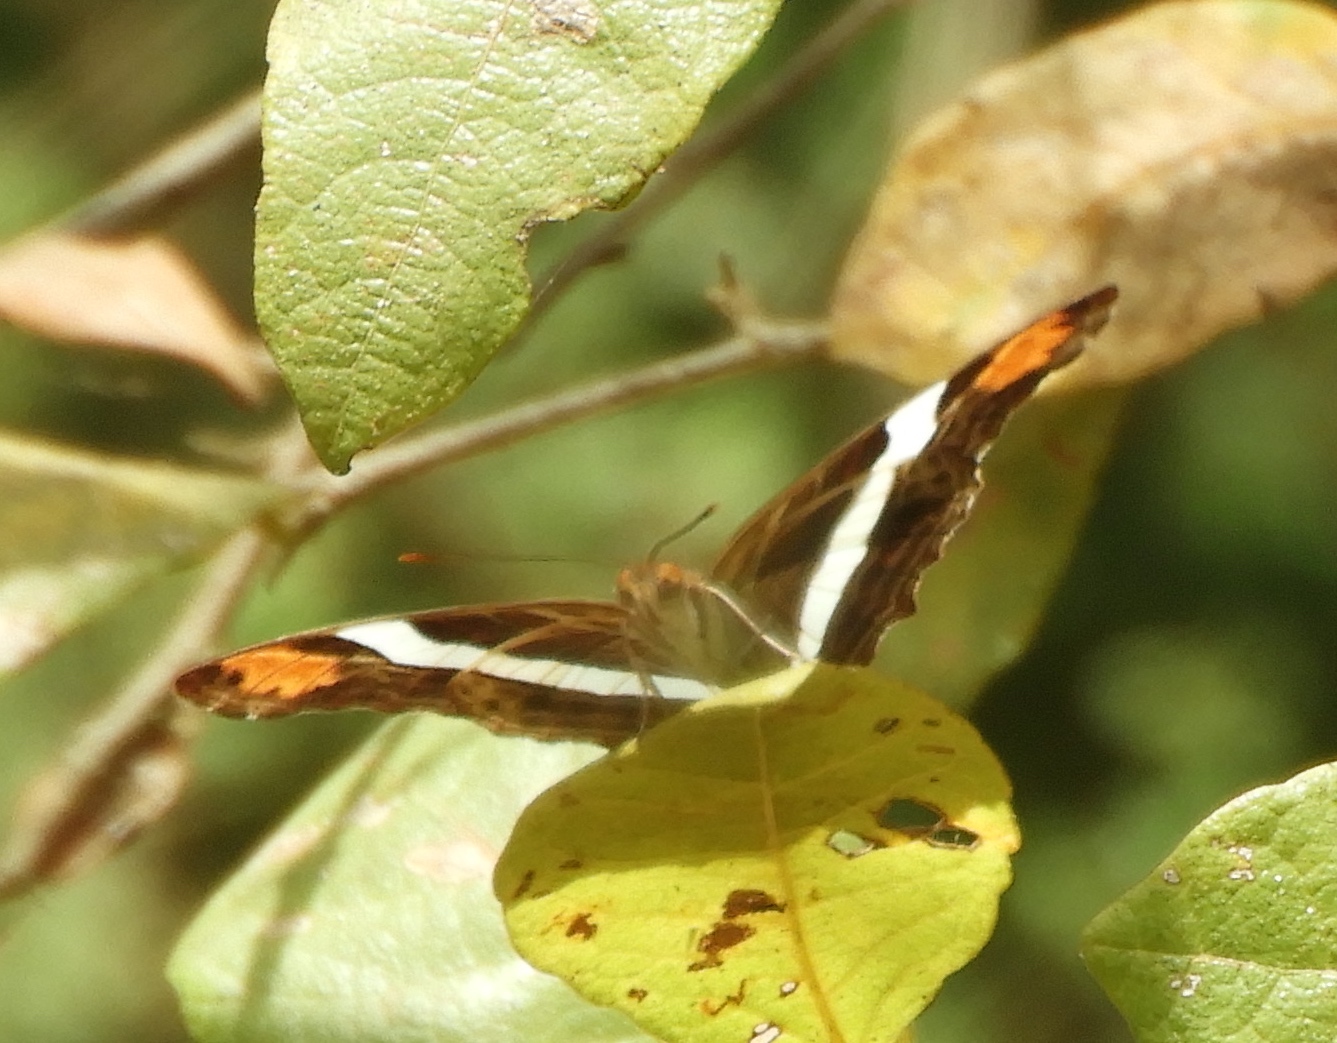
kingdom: Animalia
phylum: Arthropoda
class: Insecta
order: Lepidoptera
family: Nymphalidae
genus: Limenitis
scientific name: Limenitis fessonia
